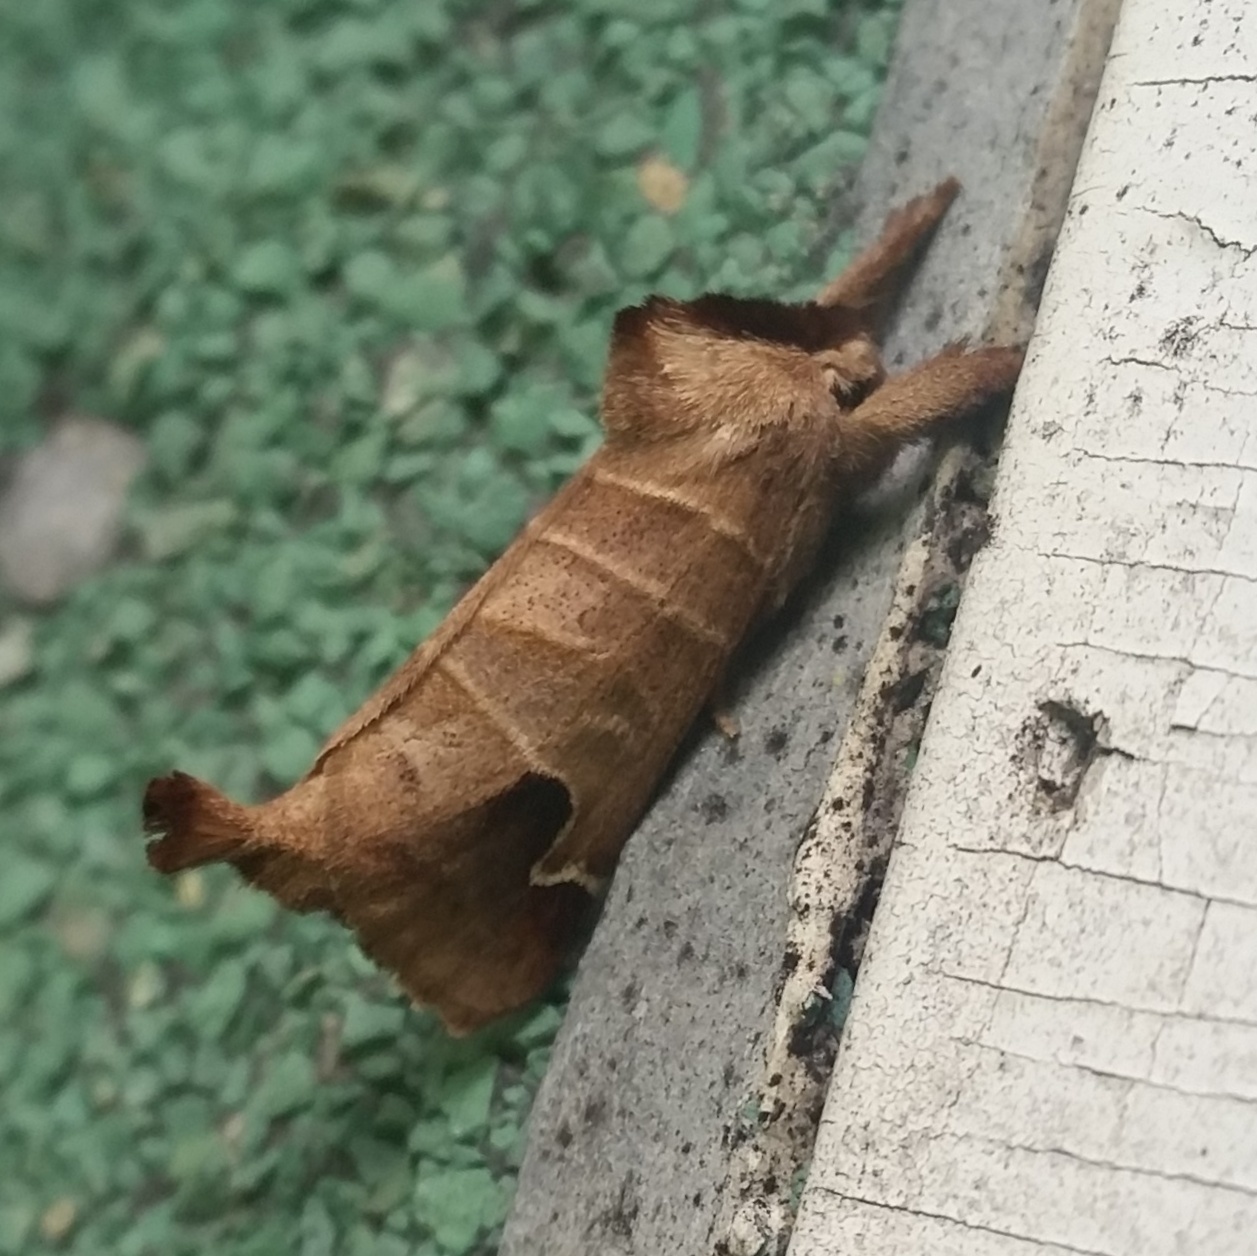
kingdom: Animalia
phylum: Arthropoda
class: Insecta
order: Lepidoptera
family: Notodontidae
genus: Clostera
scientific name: Clostera albosigma
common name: Sigmoid prominent
